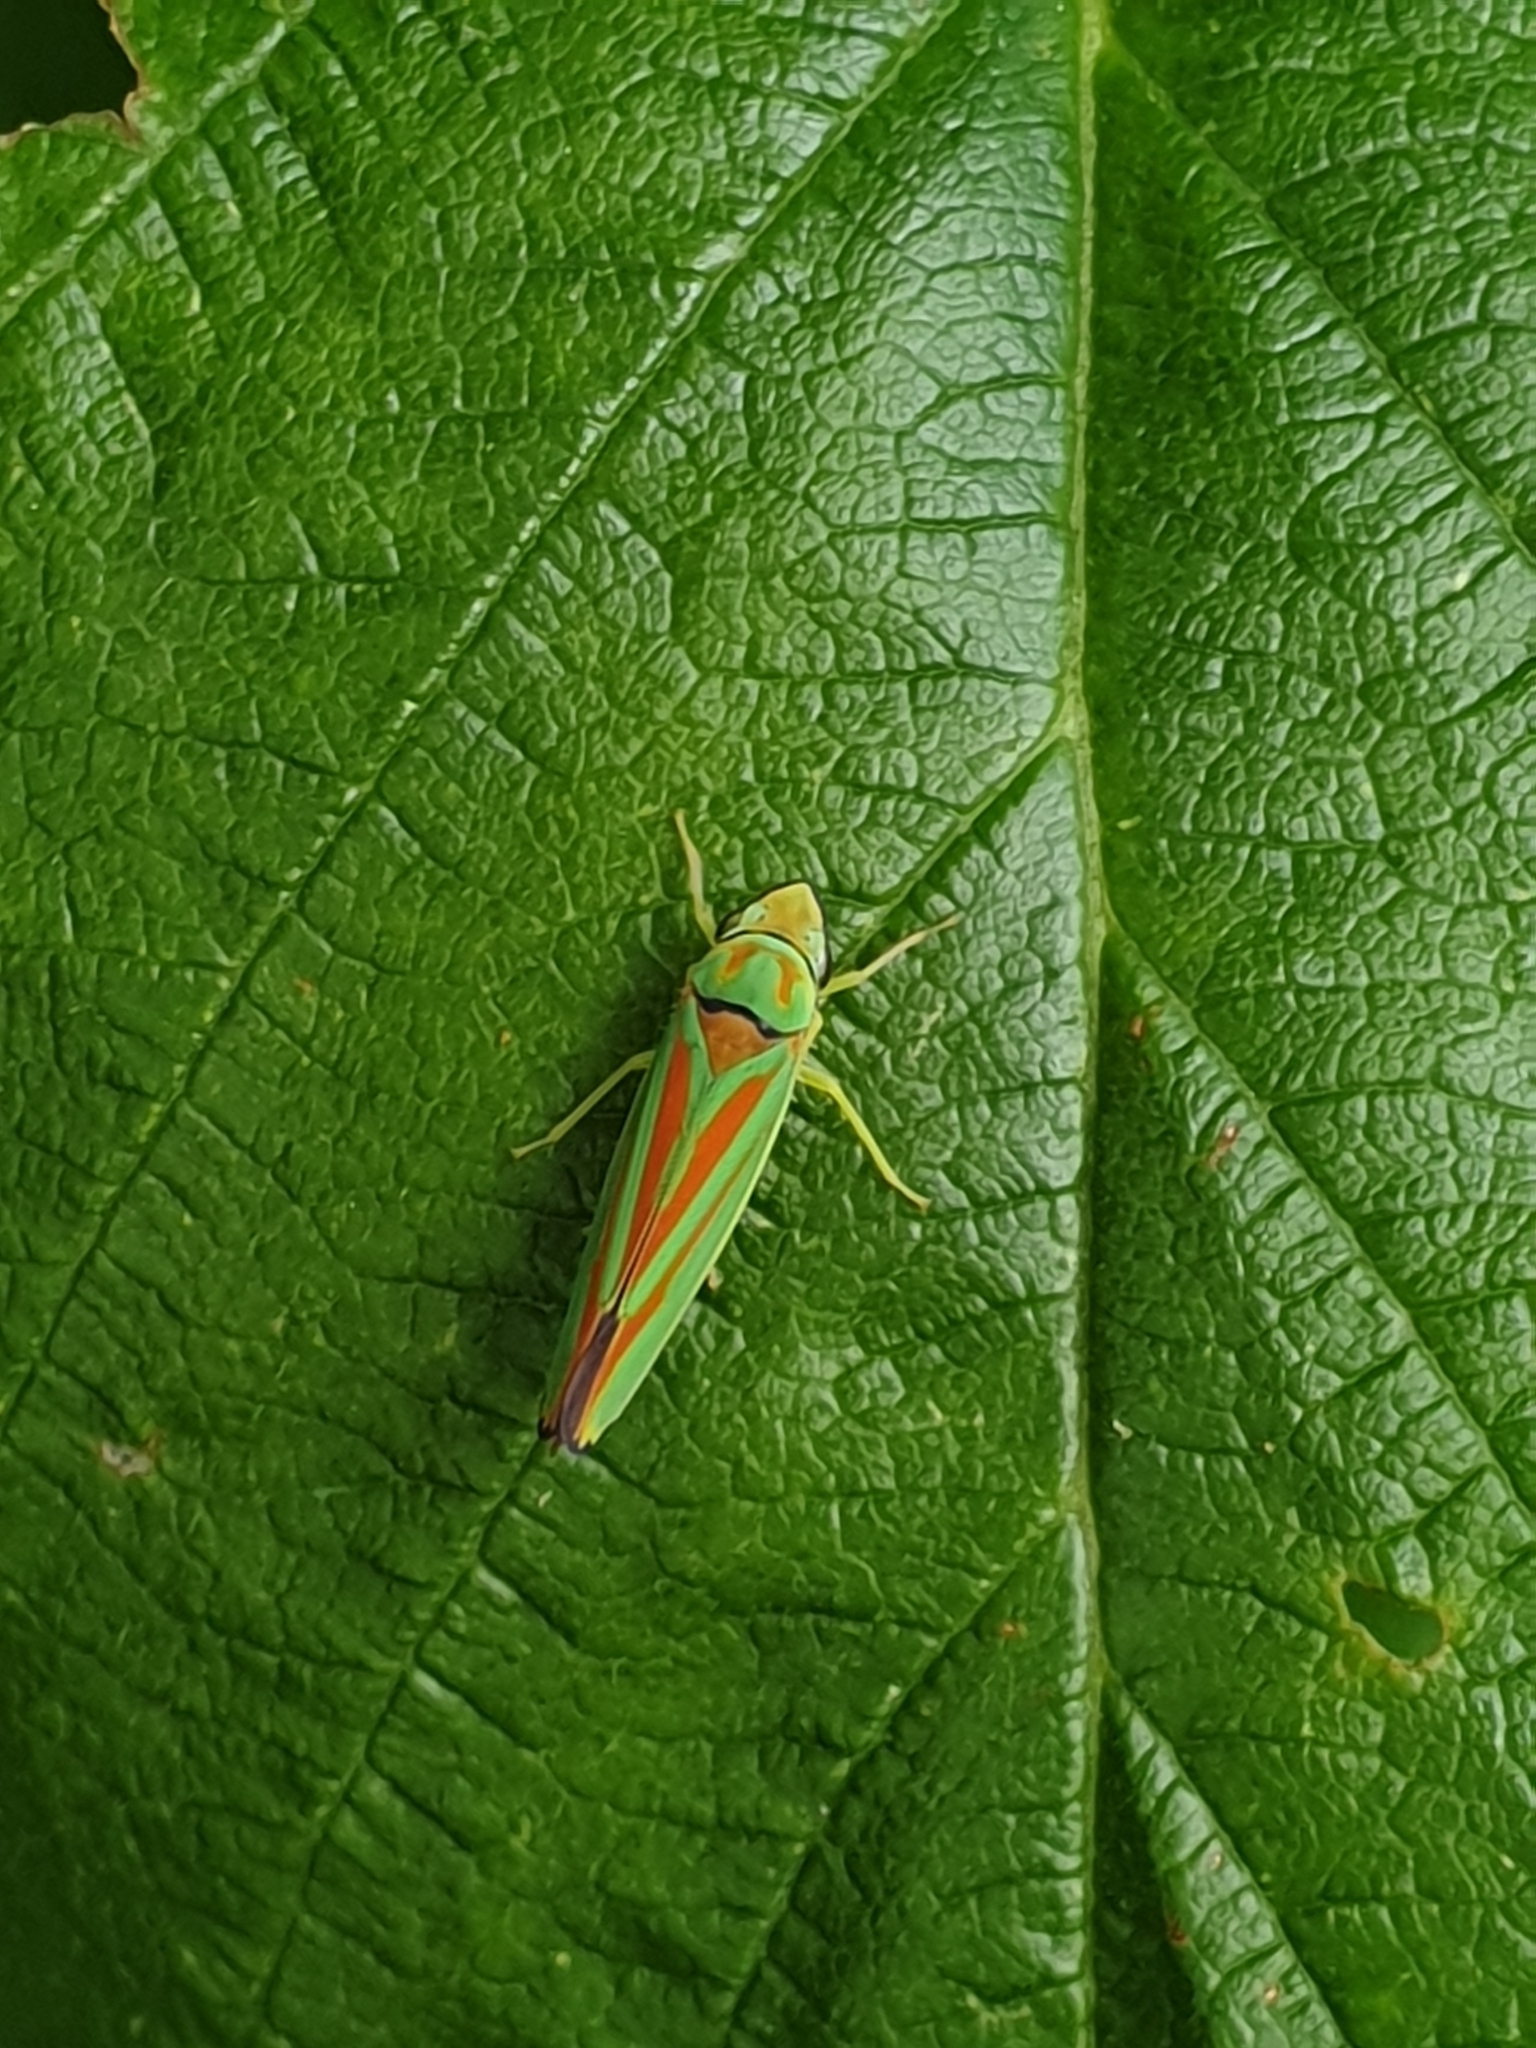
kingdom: Animalia
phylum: Arthropoda
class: Insecta
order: Hemiptera
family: Cicadellidae
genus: Graphocephala
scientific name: Graphocephala fennahi
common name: Rhododendron leafhopper
